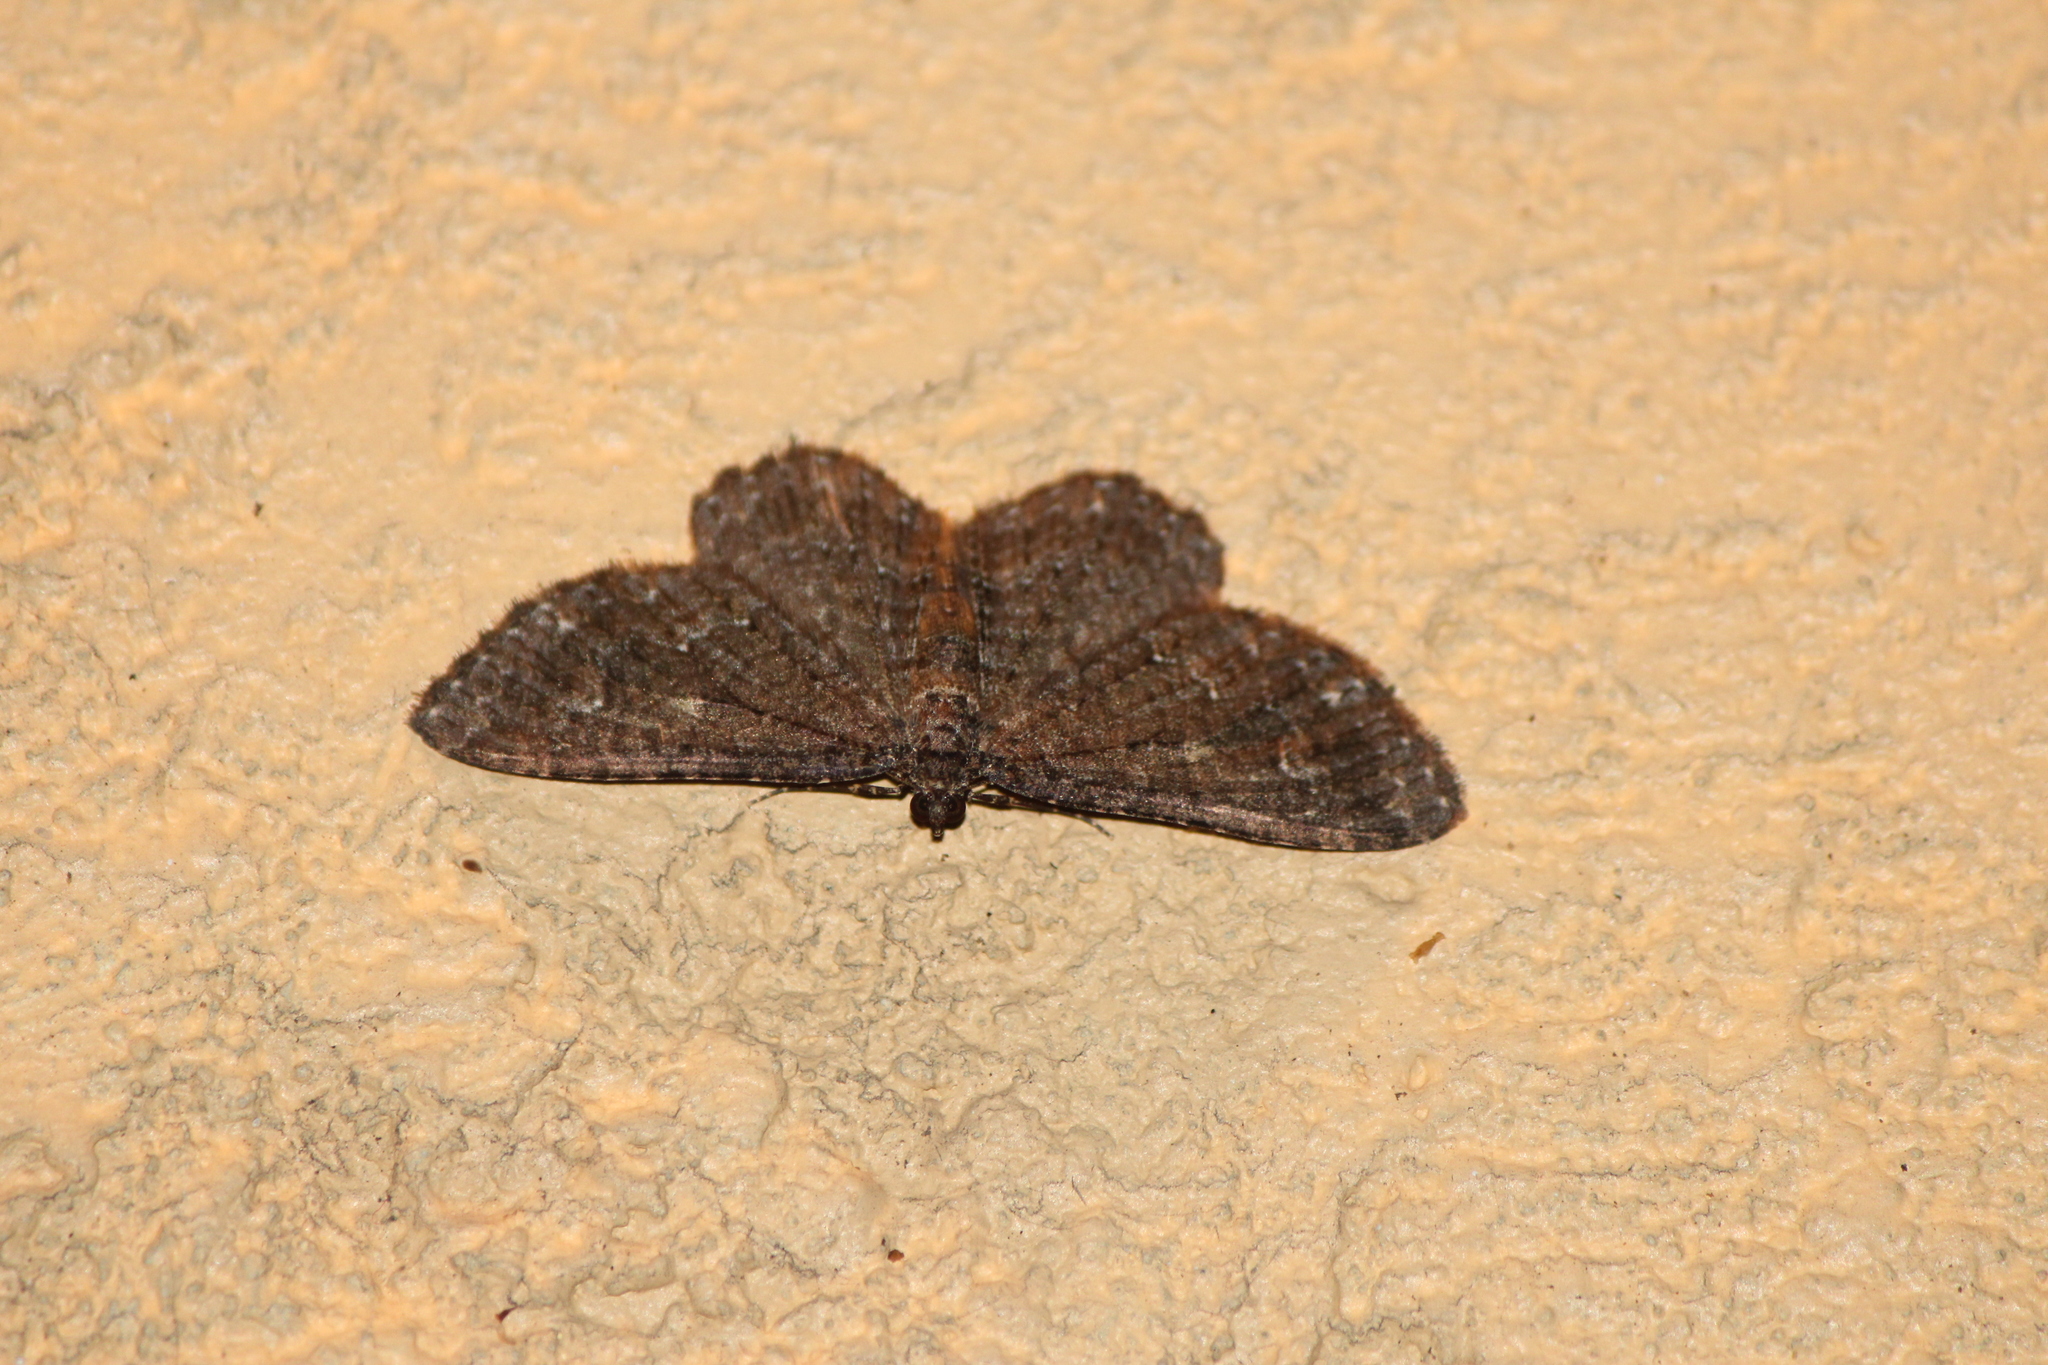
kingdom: Animalia
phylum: Arthropoda
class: Insecta
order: Lepidoptera
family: Geometridae
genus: Disclisioprocta
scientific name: Disclisioprocta stellata
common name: Somber carpet
